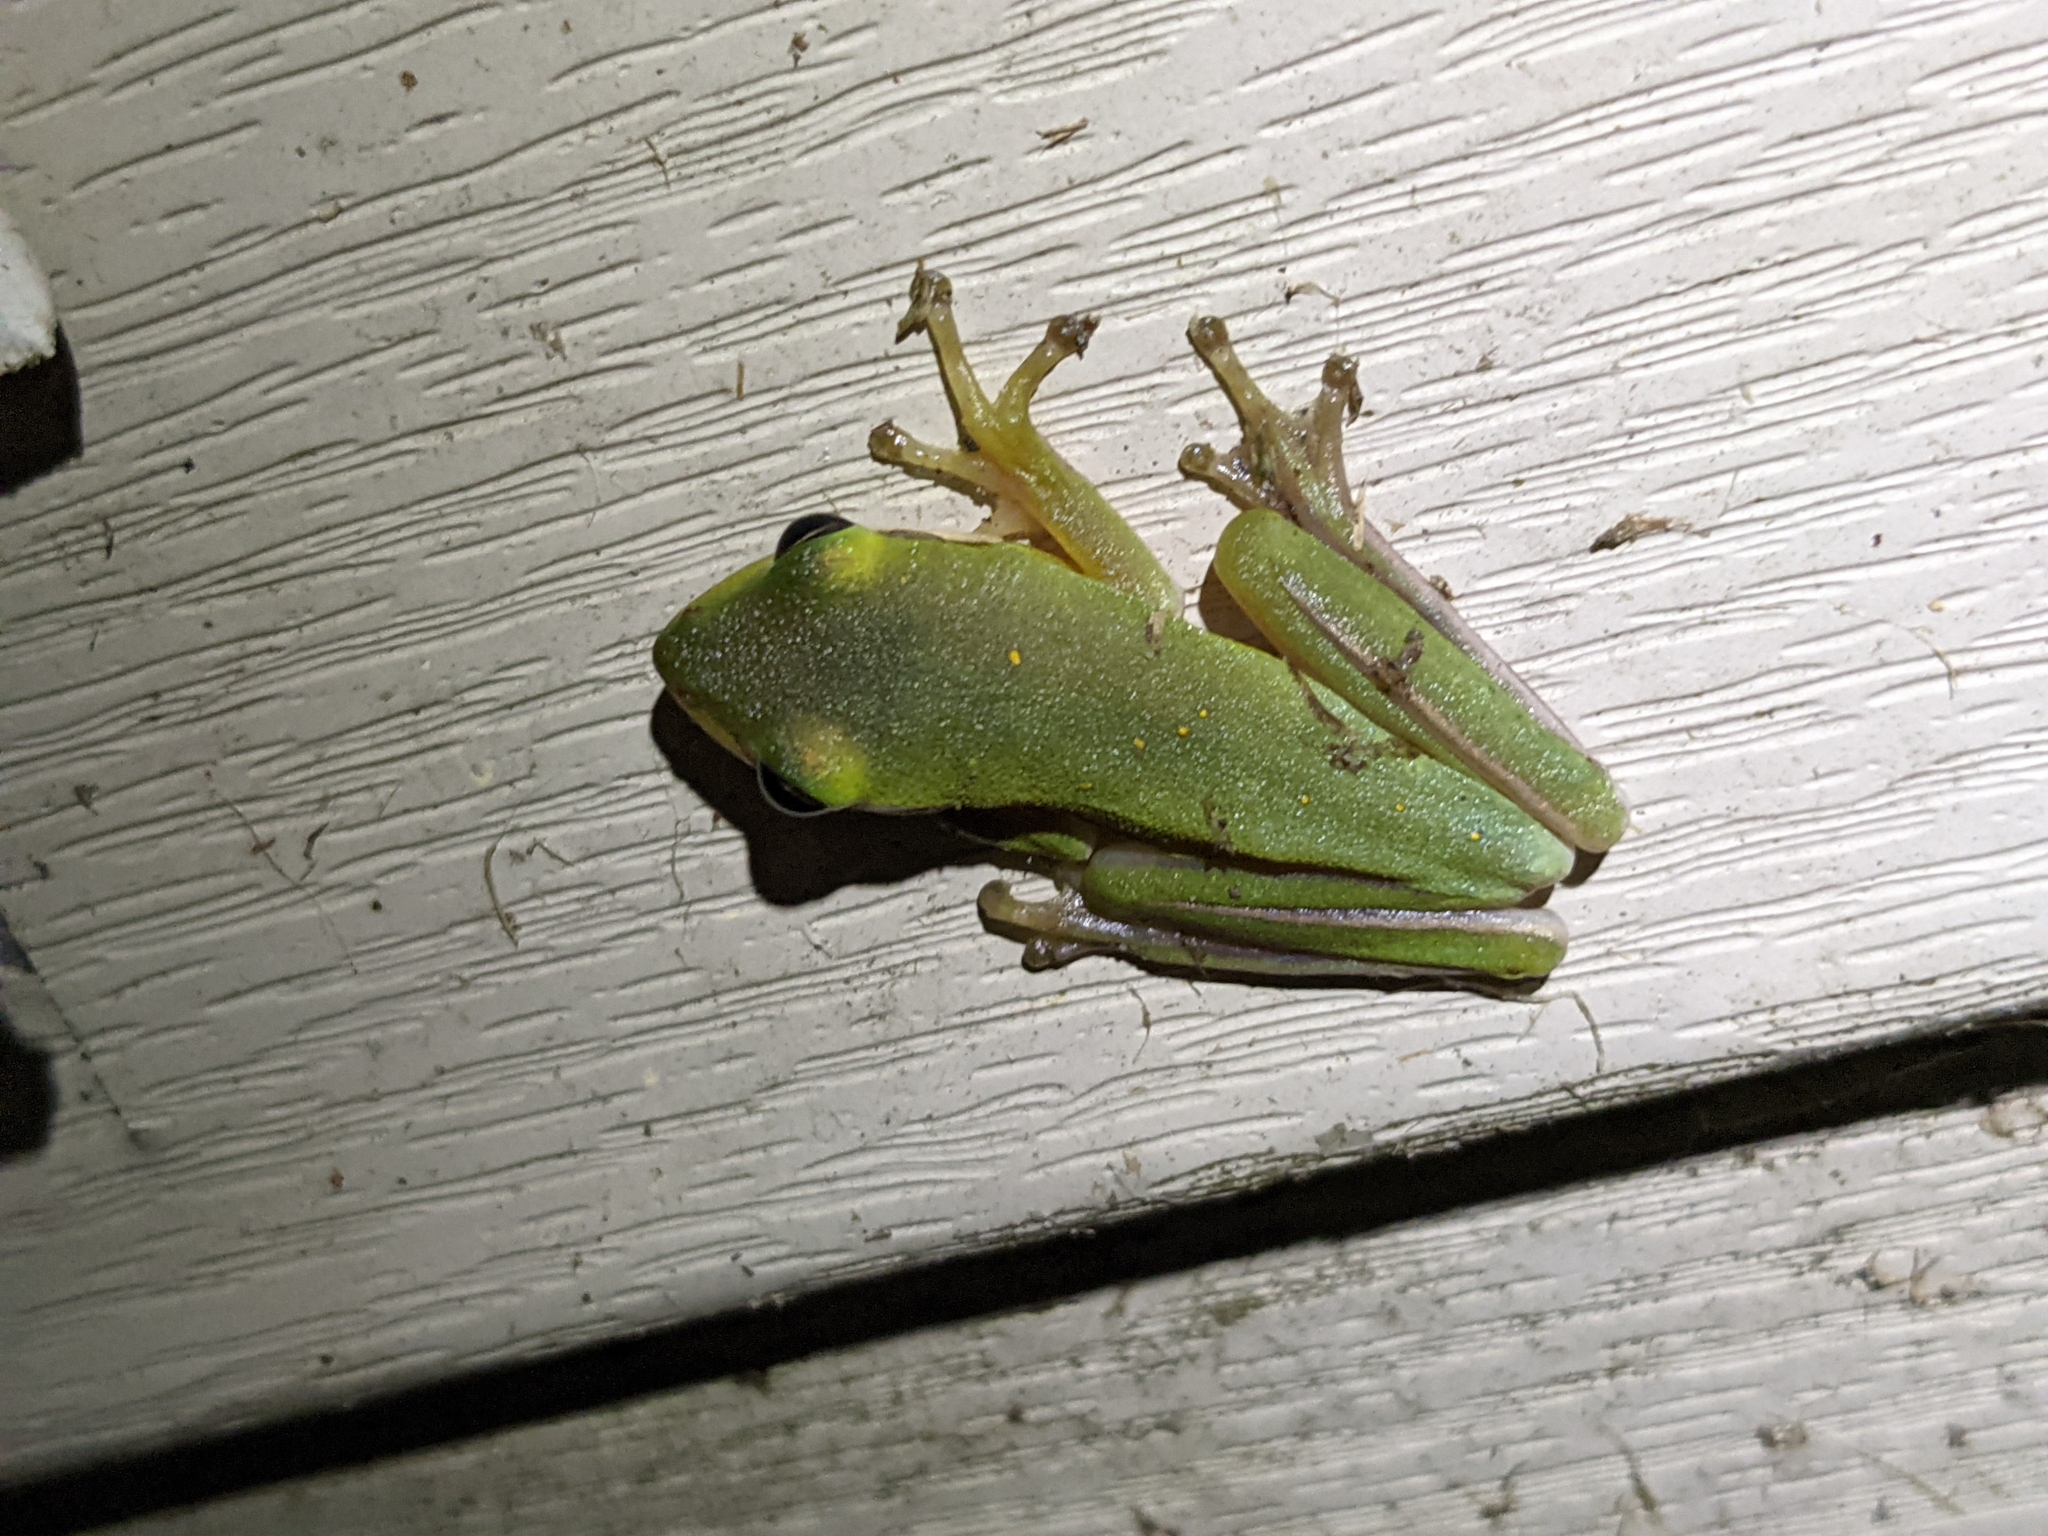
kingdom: Animalia
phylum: Chordata
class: Amphibia
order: Anura
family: Hylidae
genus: Dryophytes
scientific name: Dryophytes cinereus
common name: Green treefrog
